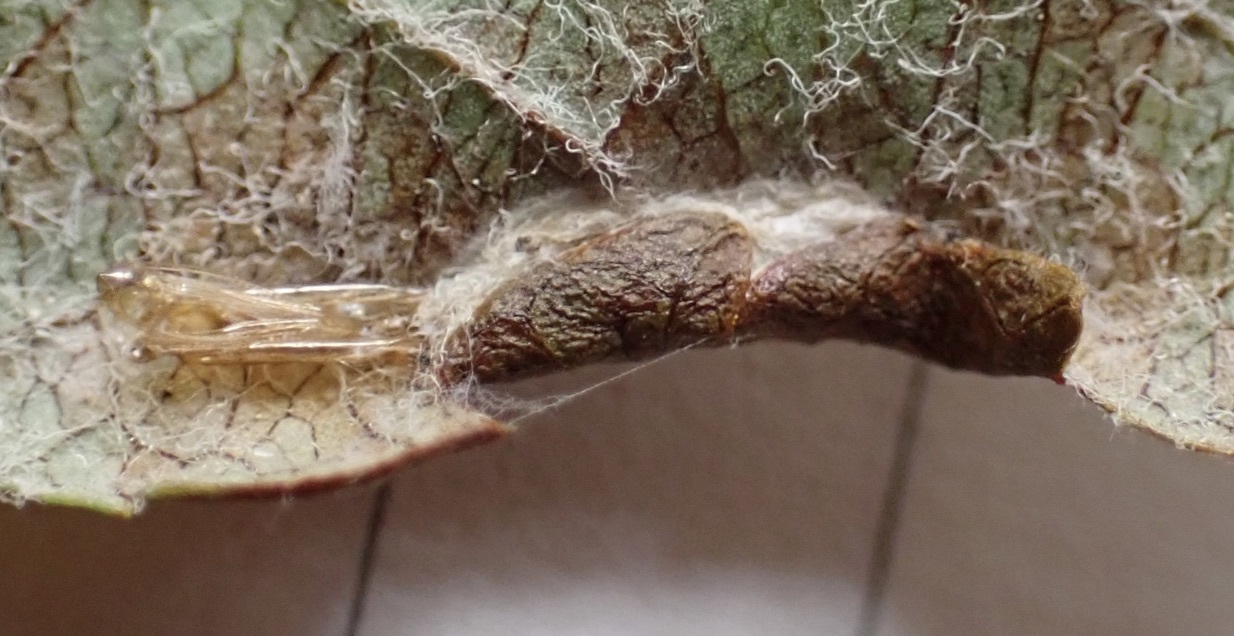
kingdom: Animalia
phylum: Arthropoda
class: Insecta
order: Lepidoptera
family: Gracillariidae
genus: Parornix
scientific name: Parornix quadripunctella
